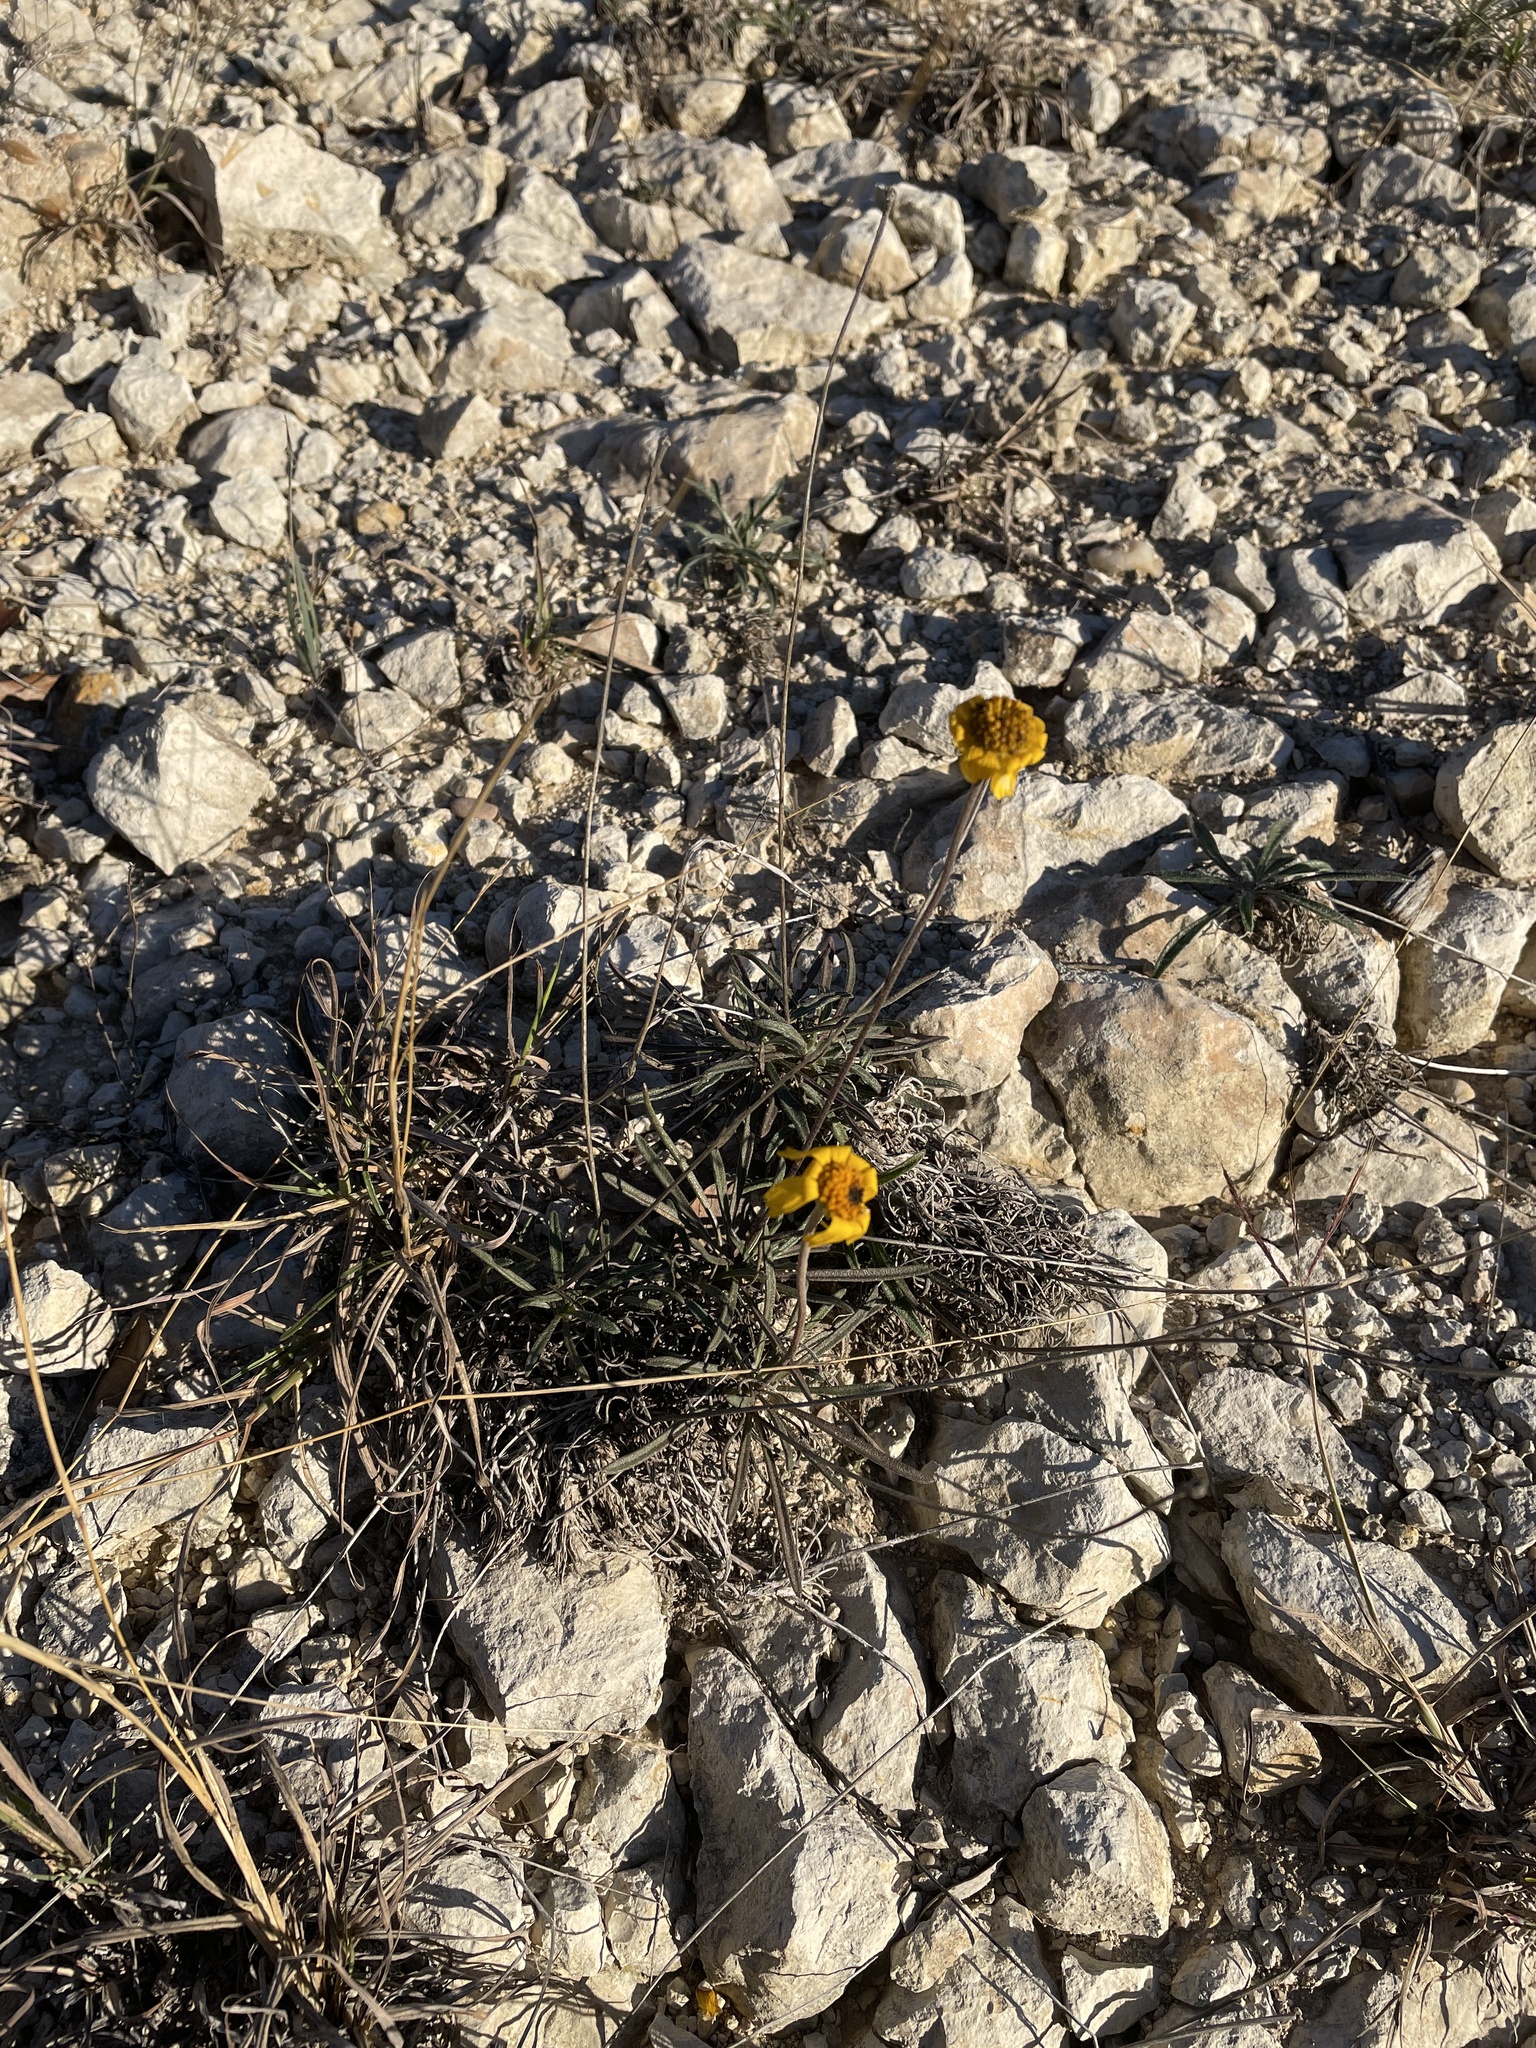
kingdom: Plantae
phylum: Tracheophyta
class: Magnoliopsida
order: Asterales
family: Asteraceae
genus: Tetraneuris
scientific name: Tetraneuris scaposa
